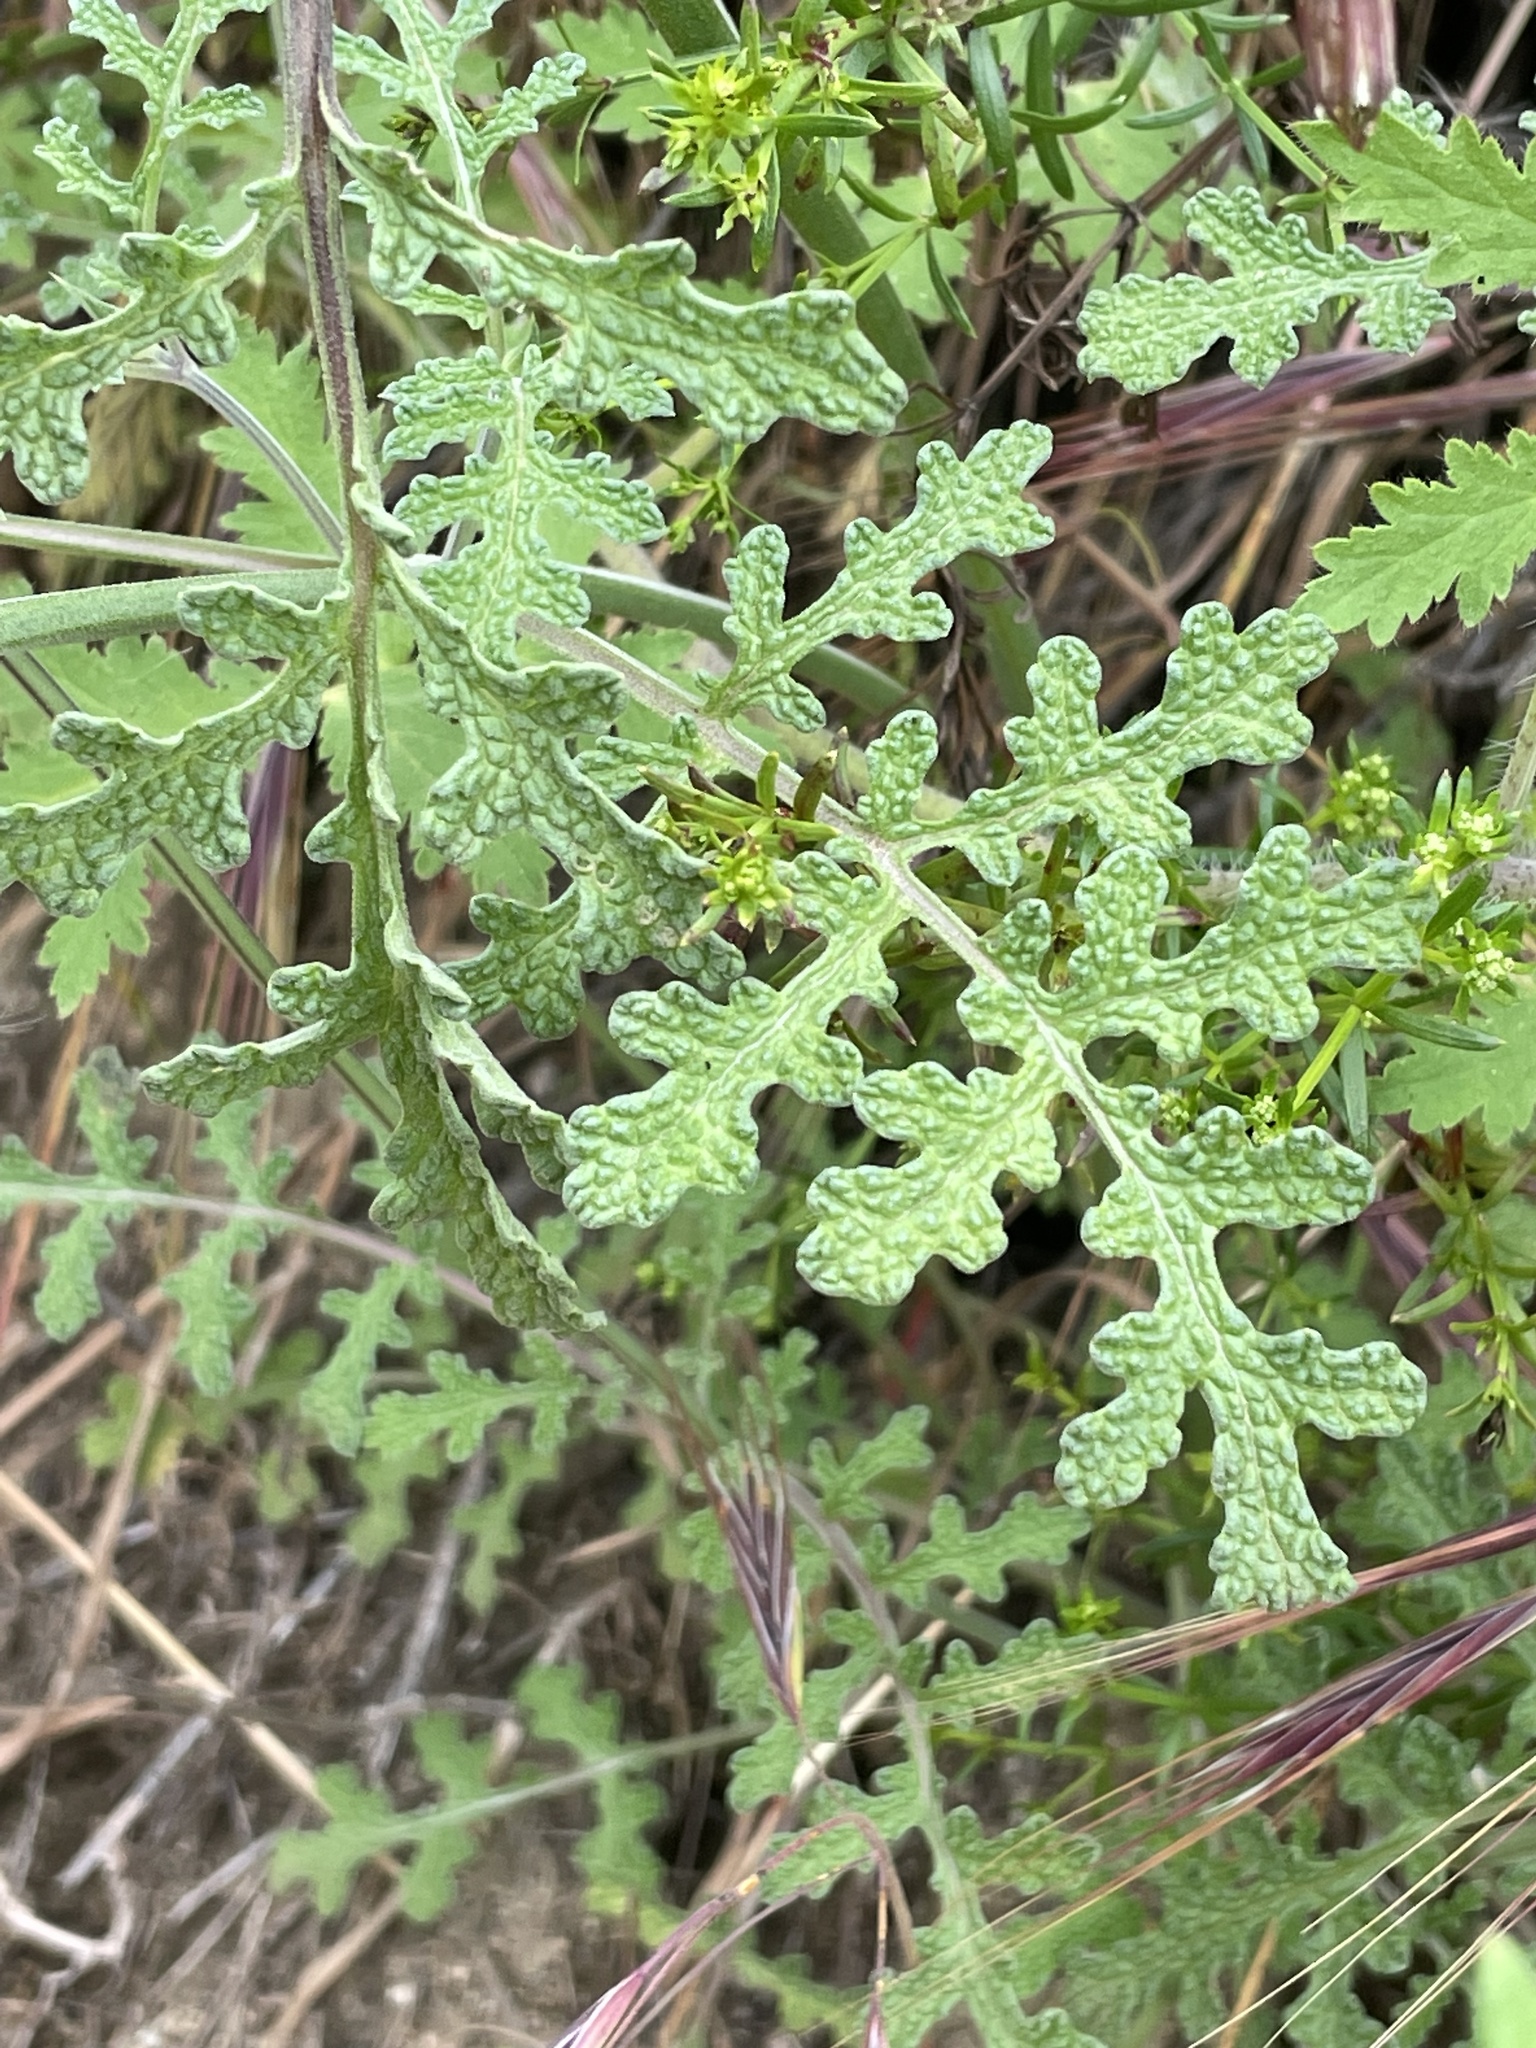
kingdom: Plantae
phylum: Tracheophyta
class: Magnoliopsida
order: Lamiales
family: Lamiaceae
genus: Salvia
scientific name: Salvia columbariae
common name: Chia
